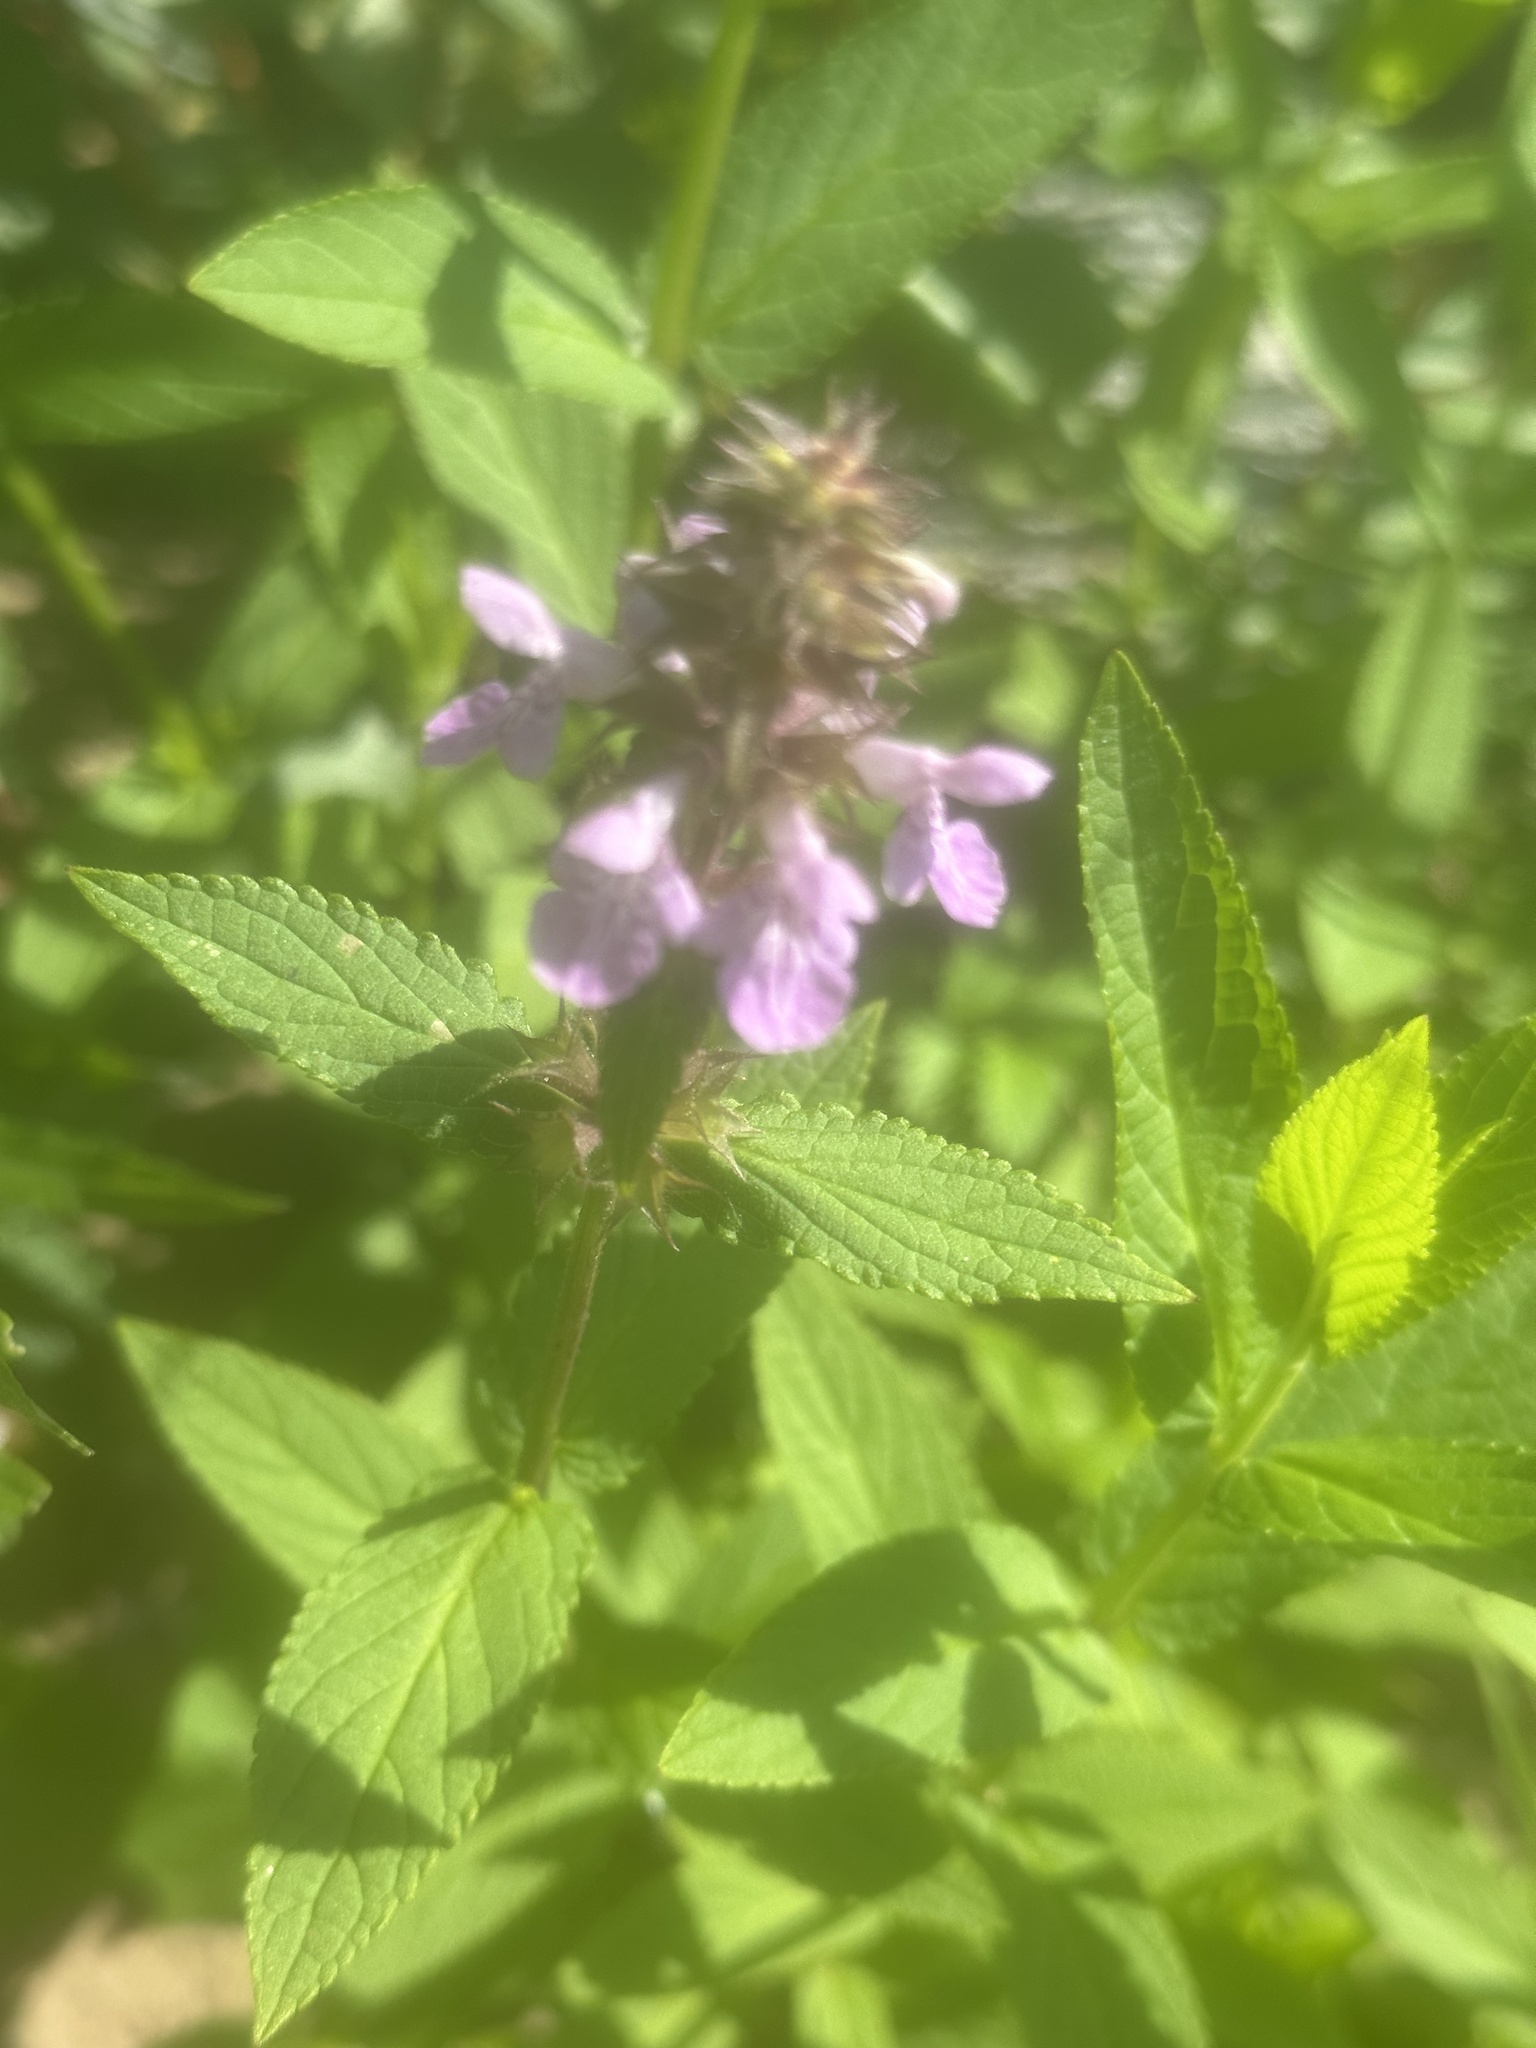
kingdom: Plantae
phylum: Tracheophyta
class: Magnoliopsida
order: Lamiales
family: Lamiaceae
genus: Stachys
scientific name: Stachys palustris
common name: Marsh woundwort
